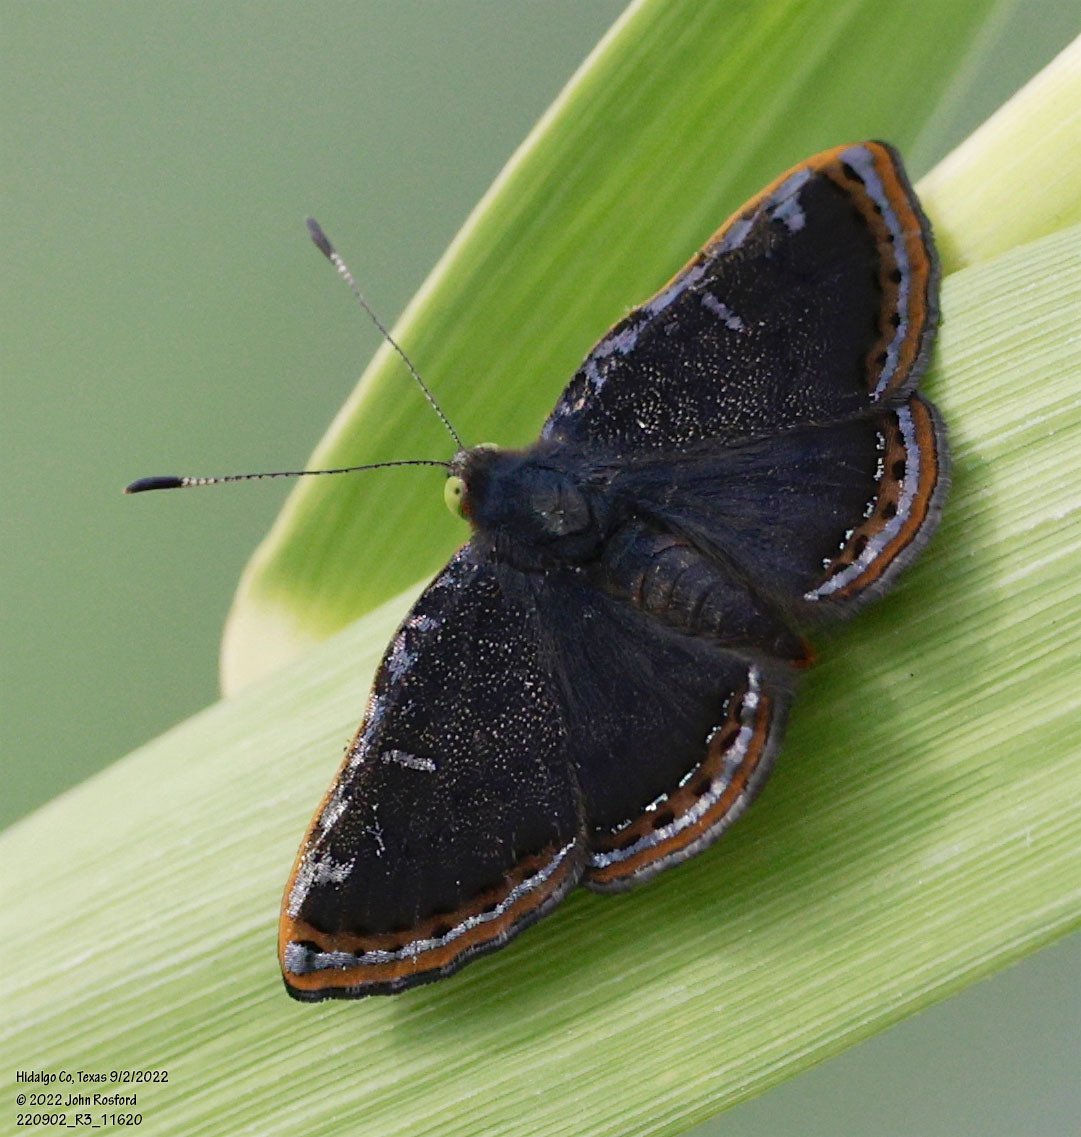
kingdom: Animalia
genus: Caria
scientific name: Caria ino
